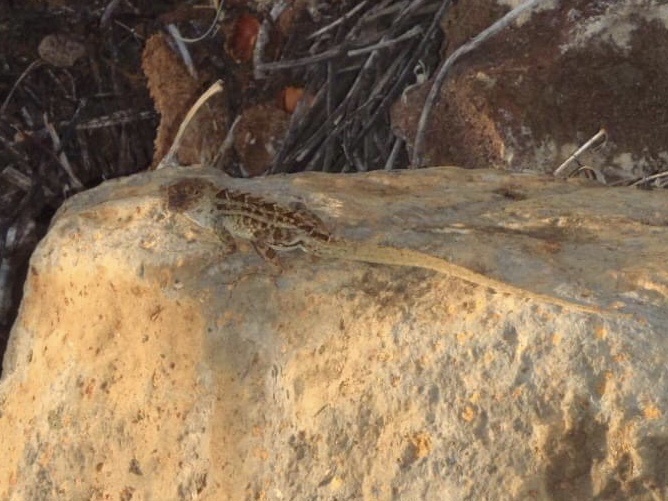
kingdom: Animalia
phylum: Chordata
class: Squamata
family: Dactyloidae
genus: Anolis
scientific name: Anolis sagrei
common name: Brown anole
